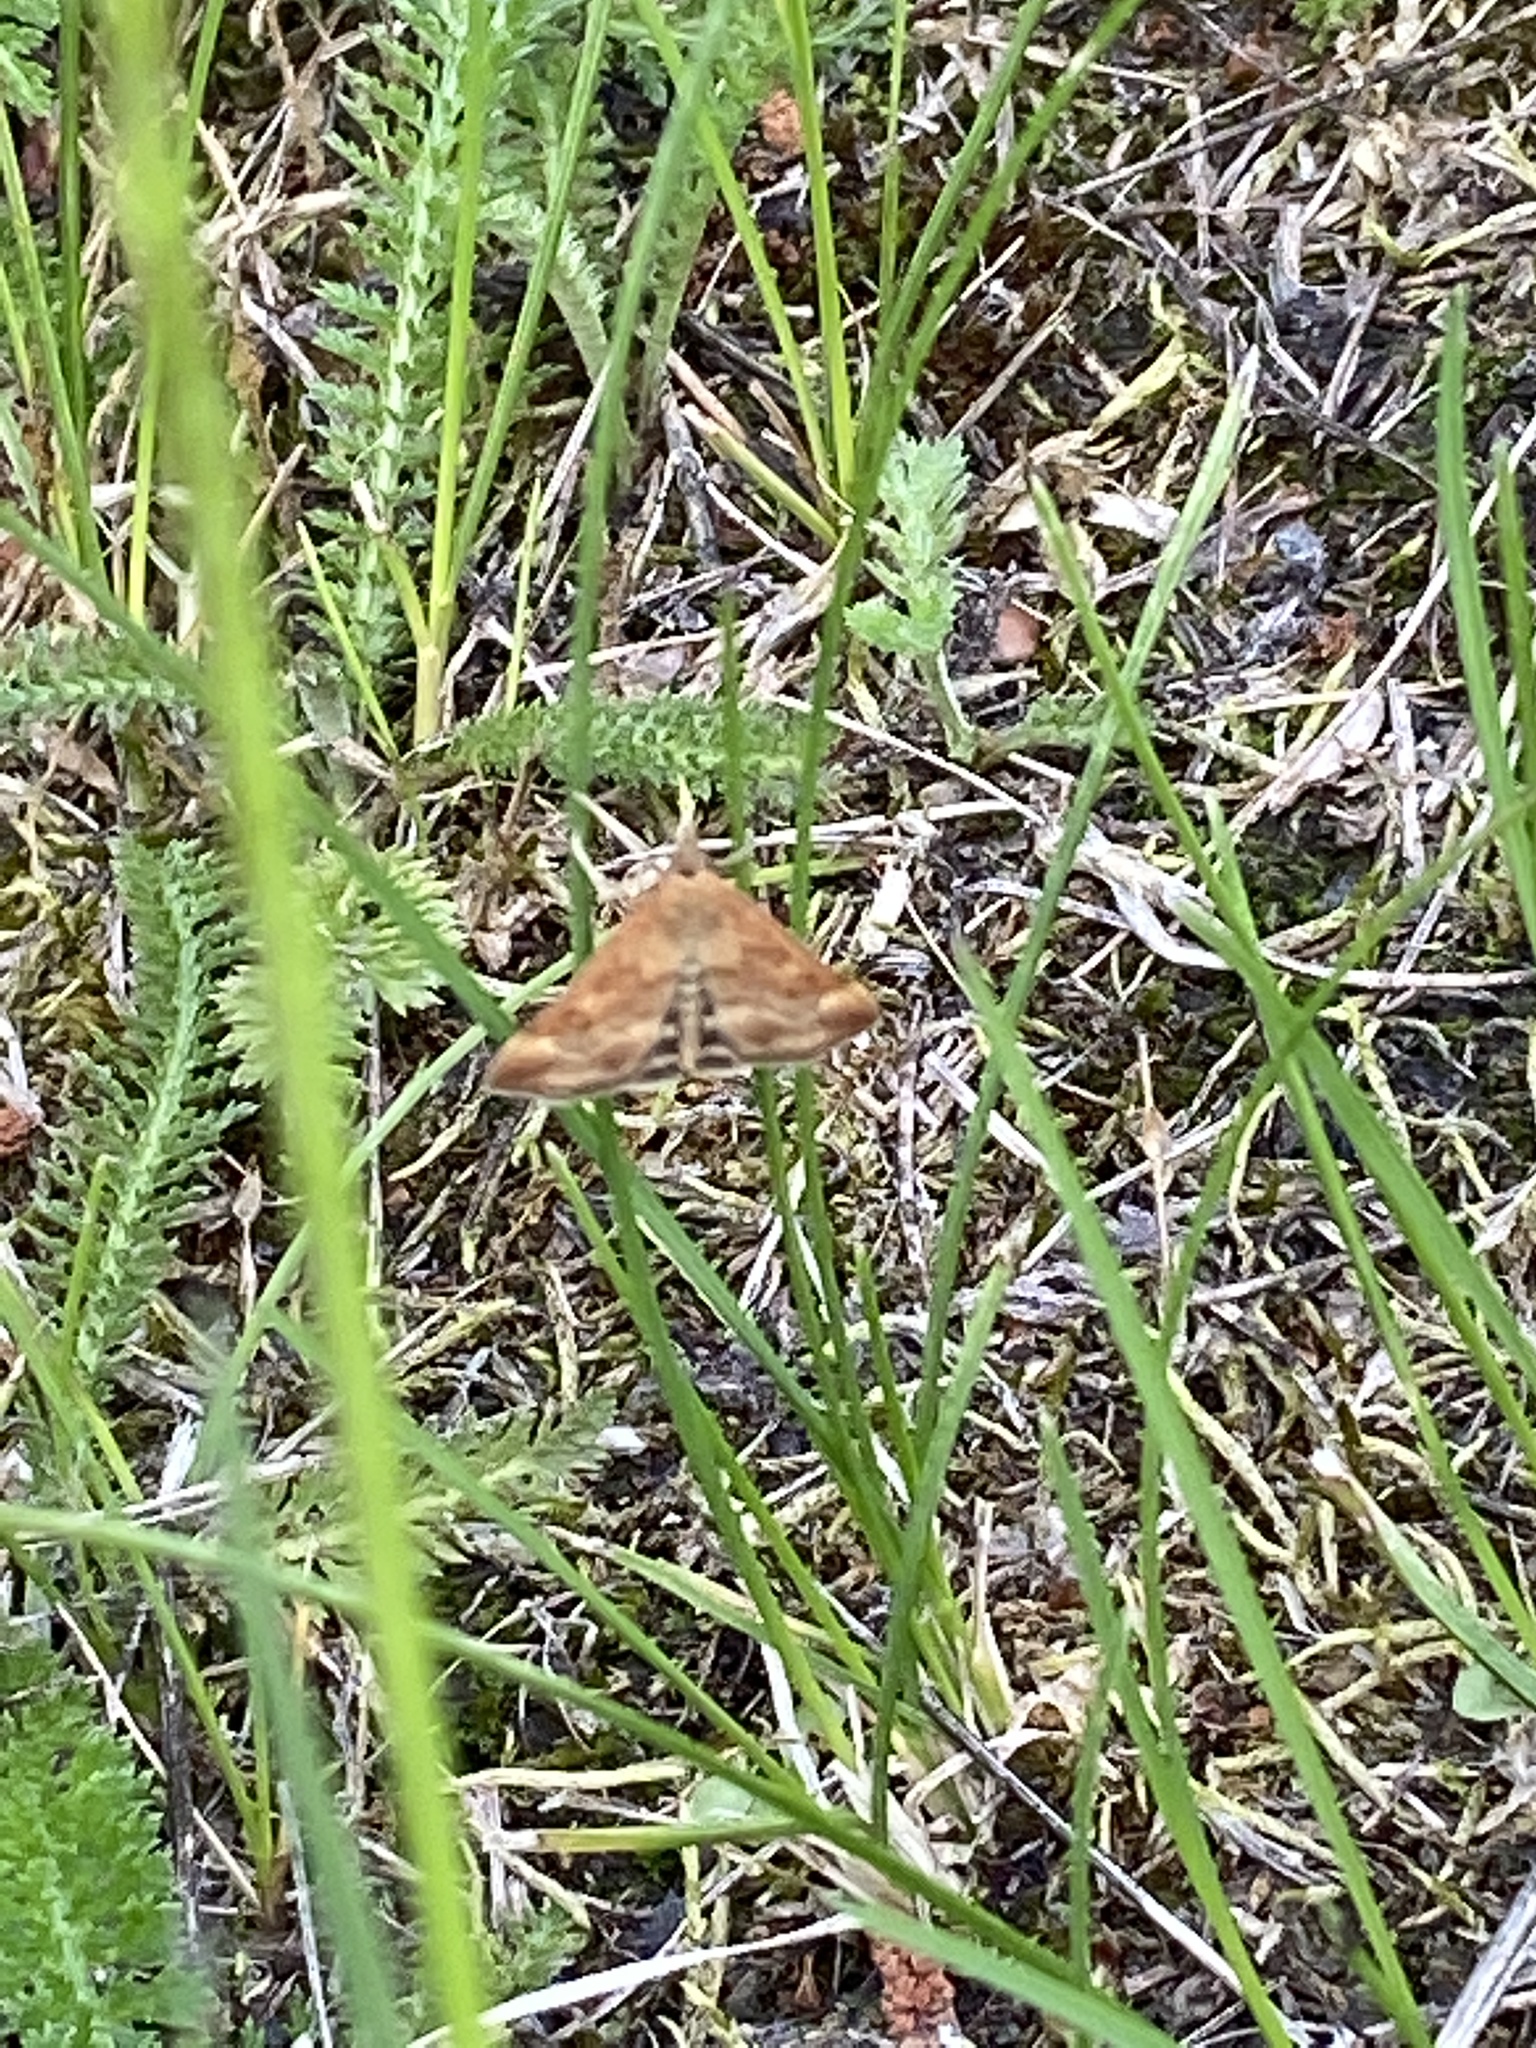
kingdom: Animalia
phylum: Arthropoda
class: Insecta
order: Lepidoptera
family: Crambidae
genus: Pyrausta
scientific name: Pyrausta despicata
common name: Straw-barred pearl
